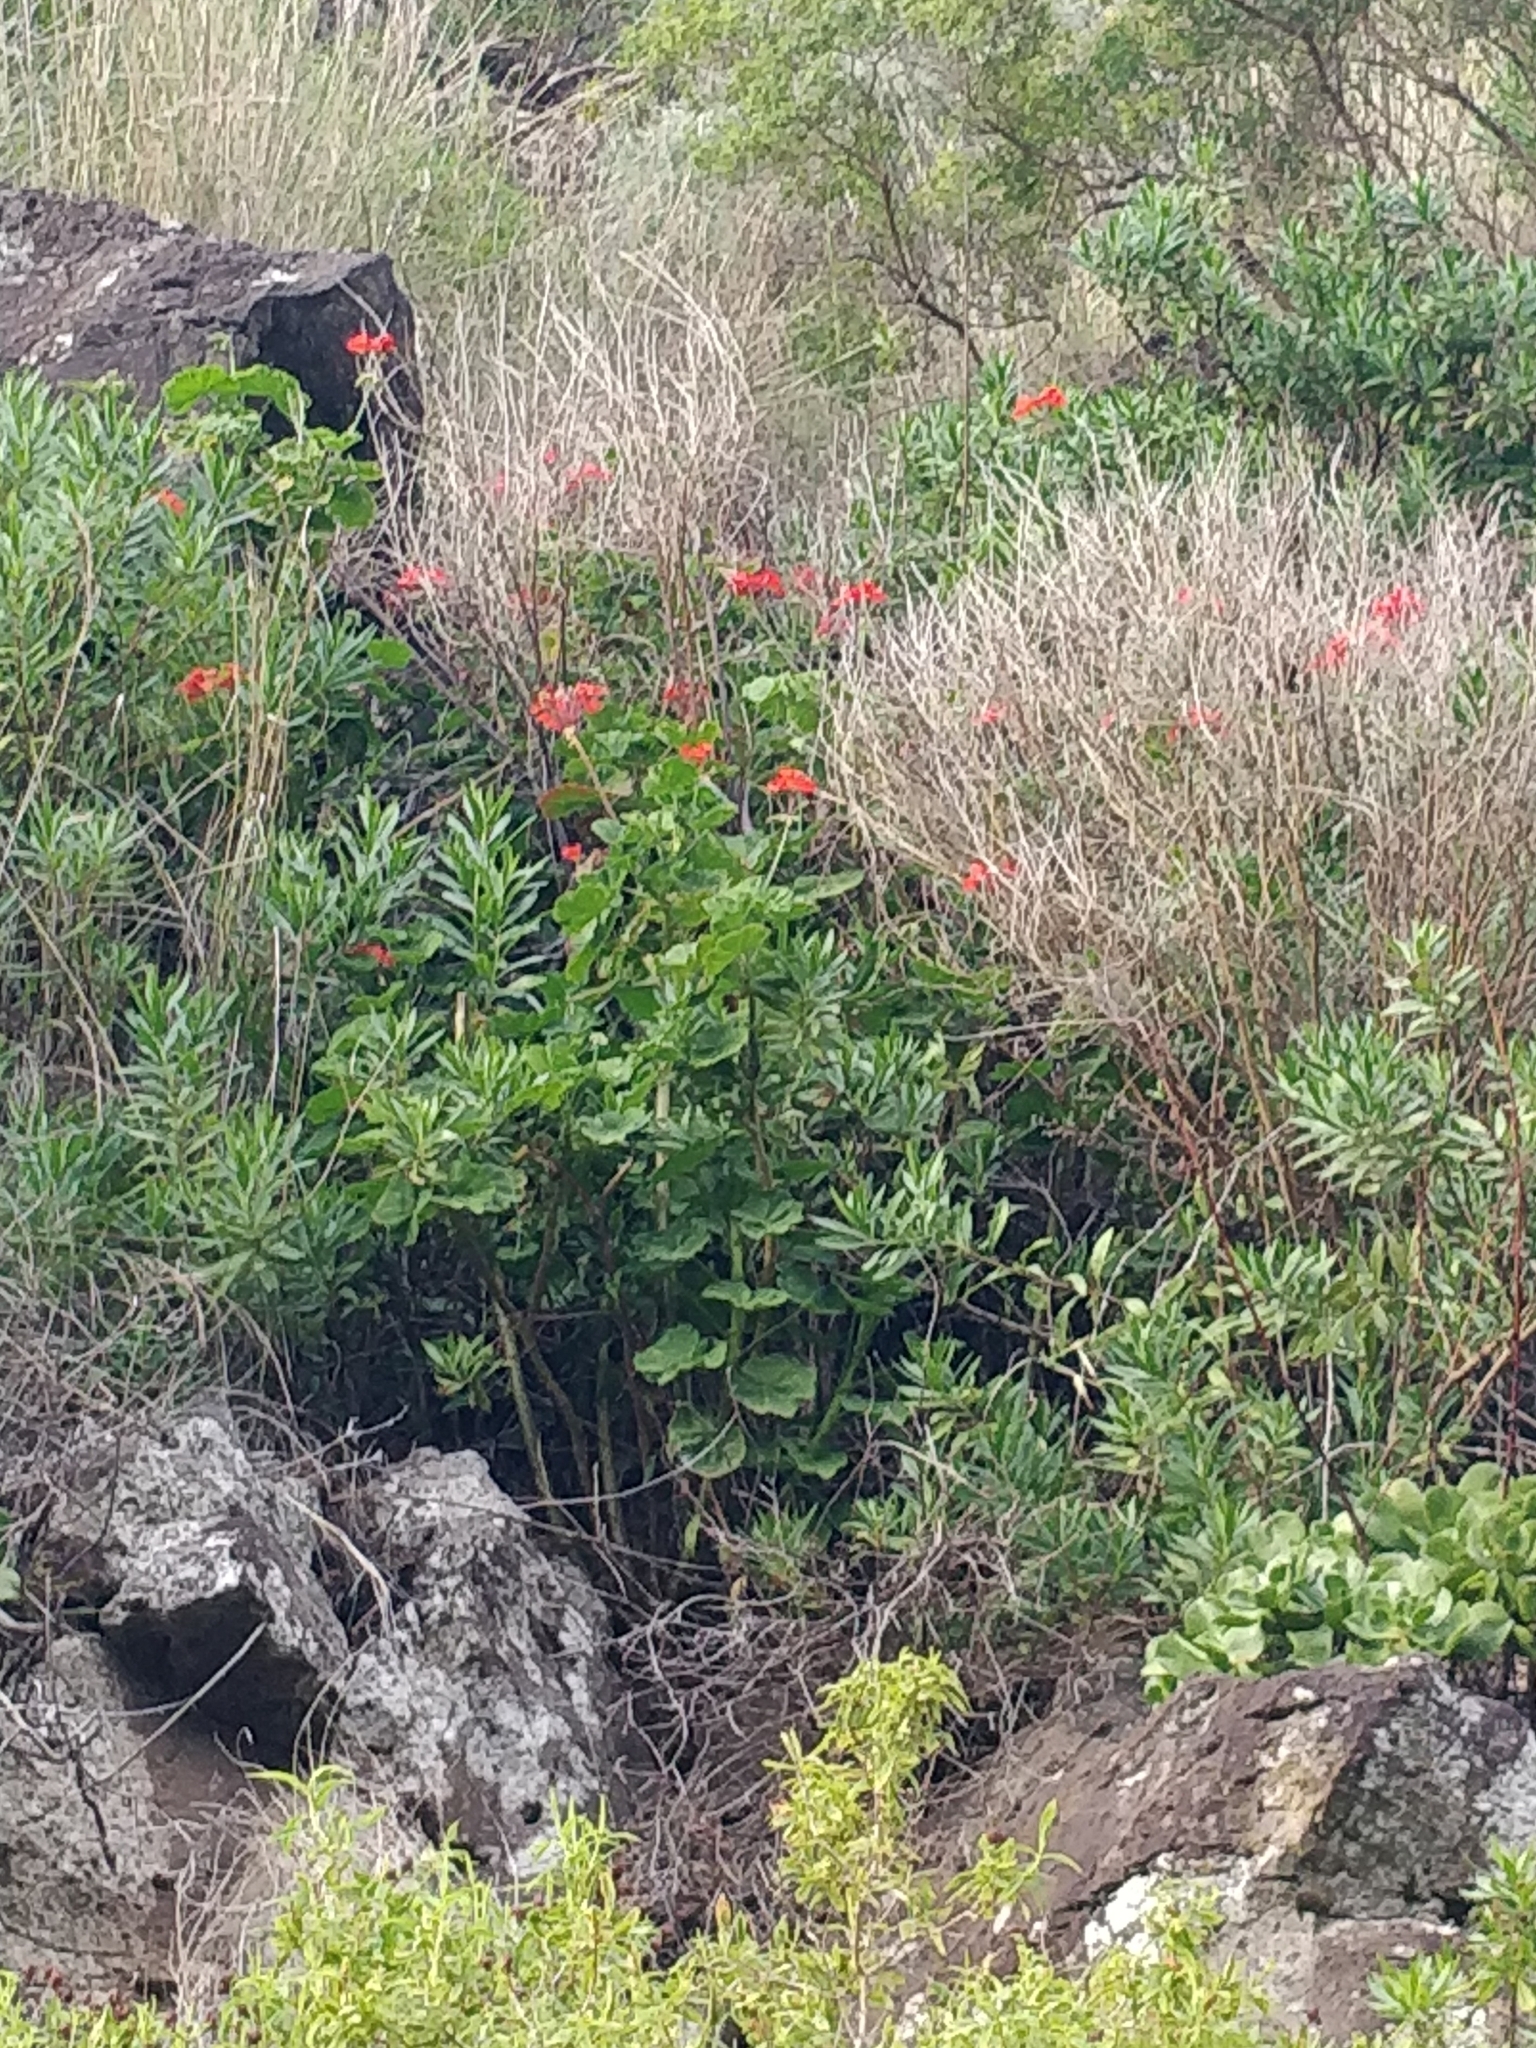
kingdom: Plantae
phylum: Tracheophyta
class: Magnoliopsida
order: Geraniales
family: Geraniaceae
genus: Pelargonium
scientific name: Pelargonium hybridum
